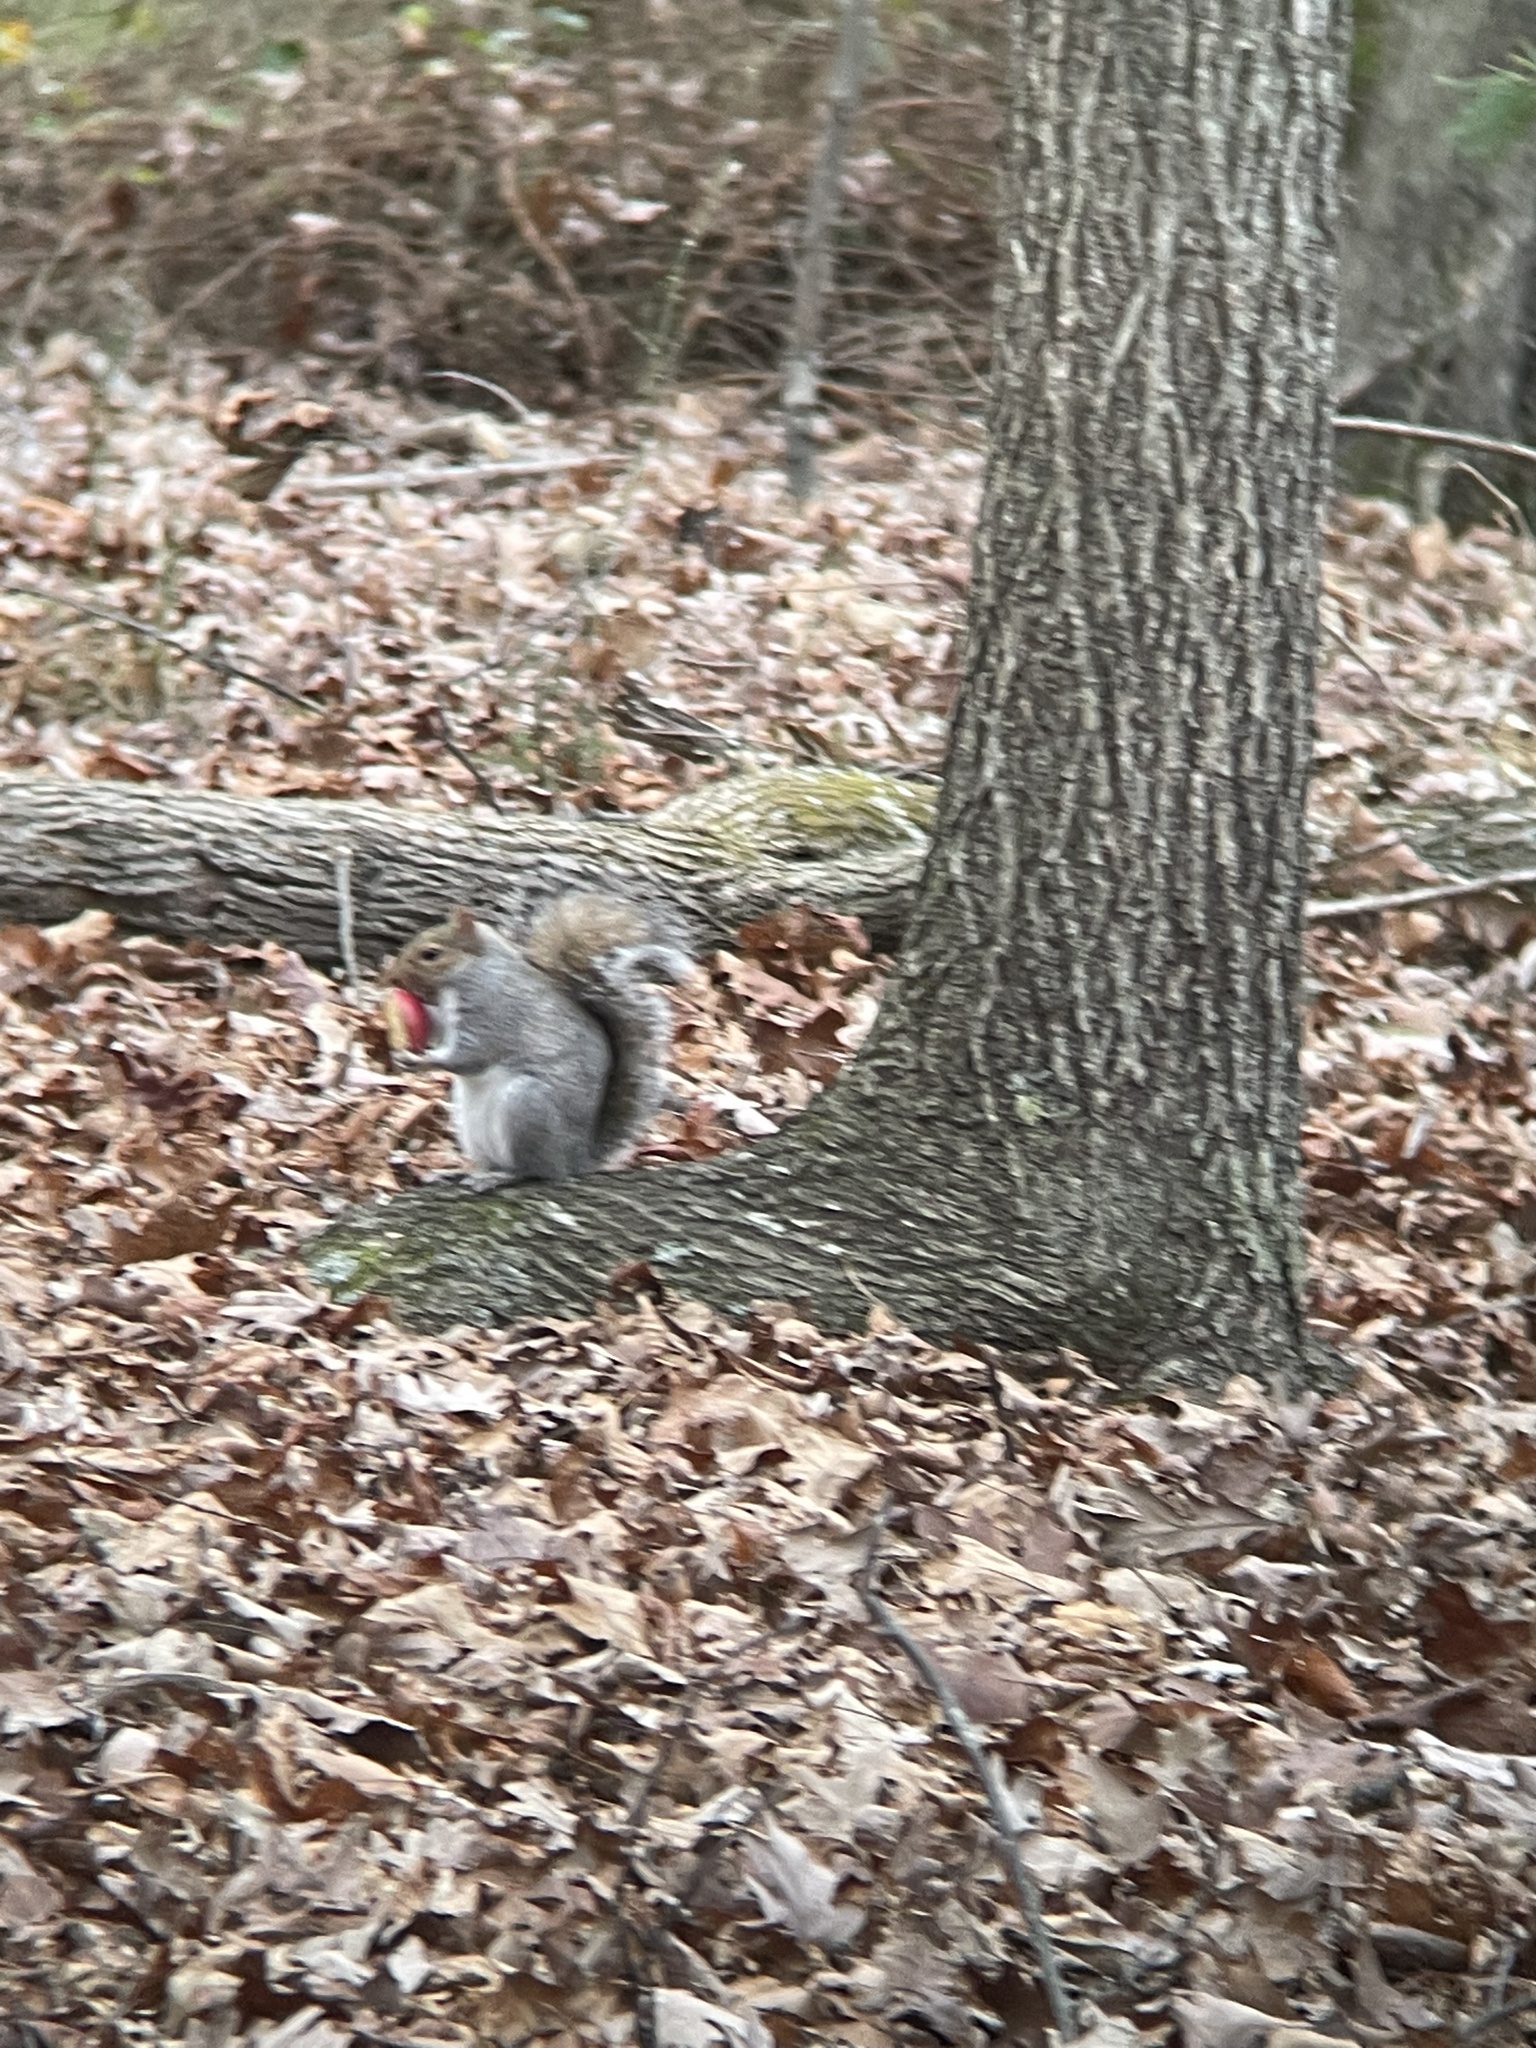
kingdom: Animalia
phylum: Chordata
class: Mammalia
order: Rodentia
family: Sciuridae
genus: Sciurus
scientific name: Sciurus carolinensis
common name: Eastern gray squirrel
